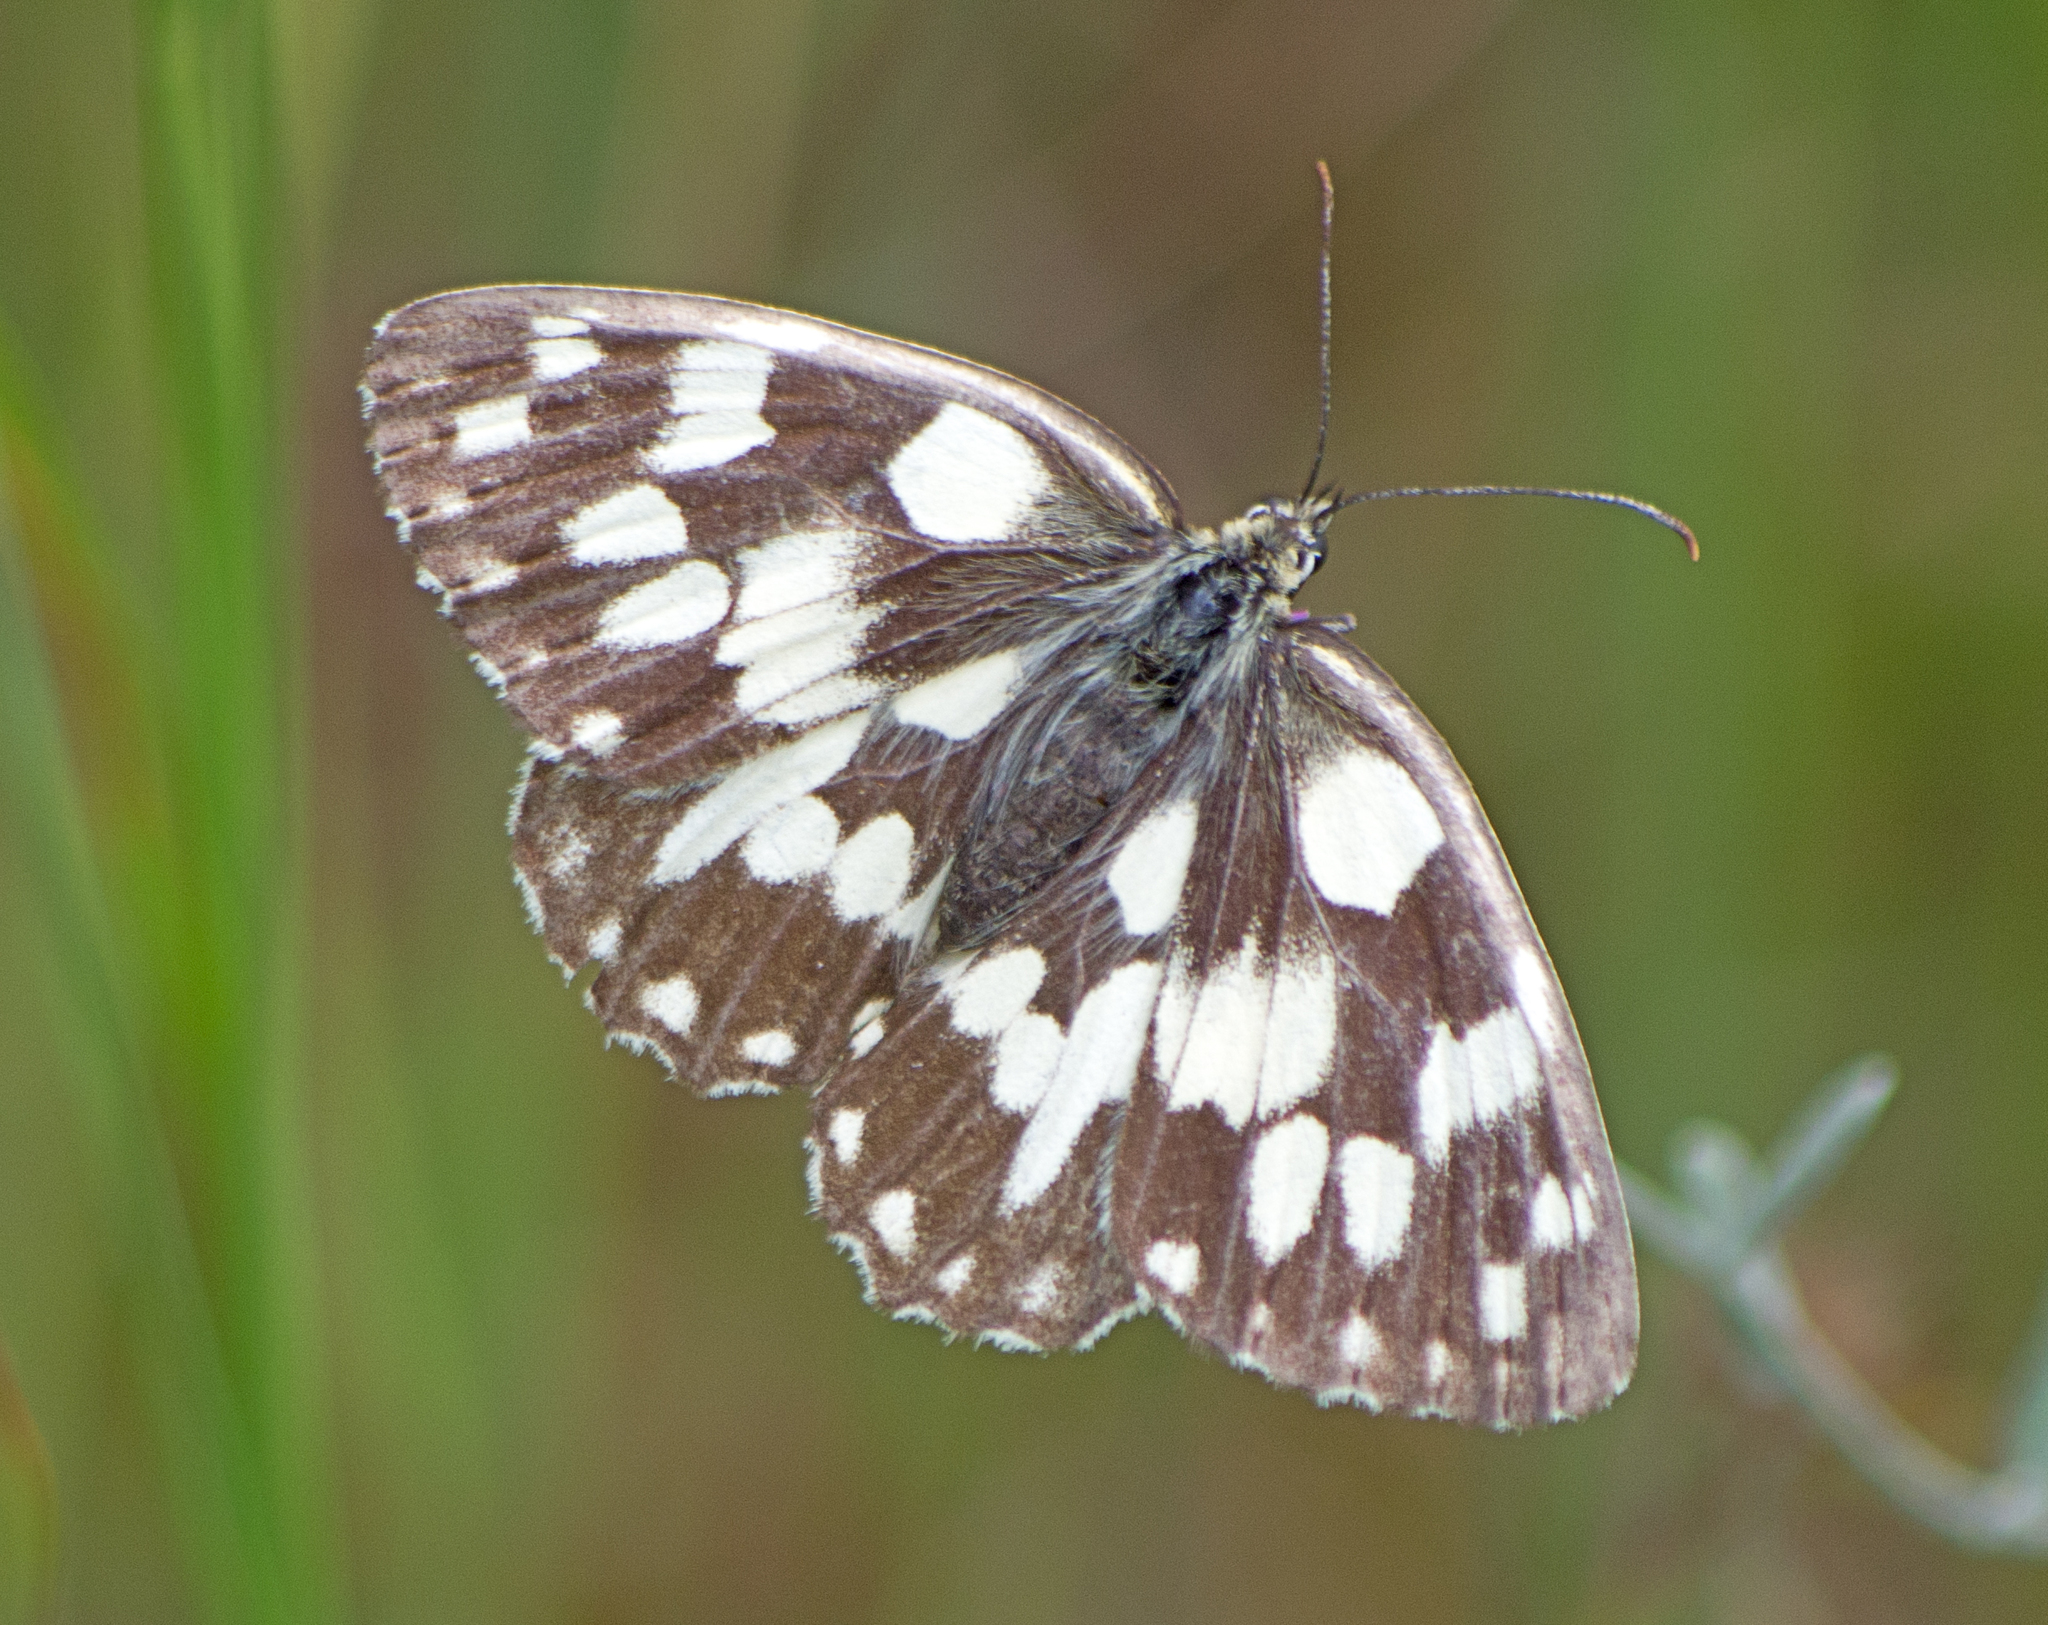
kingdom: Animalia
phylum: Arthropoda
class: Insecta
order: Lepidoptera
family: Nymphalidae
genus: Melanargia
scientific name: Melanargia galathea
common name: Marbled white
